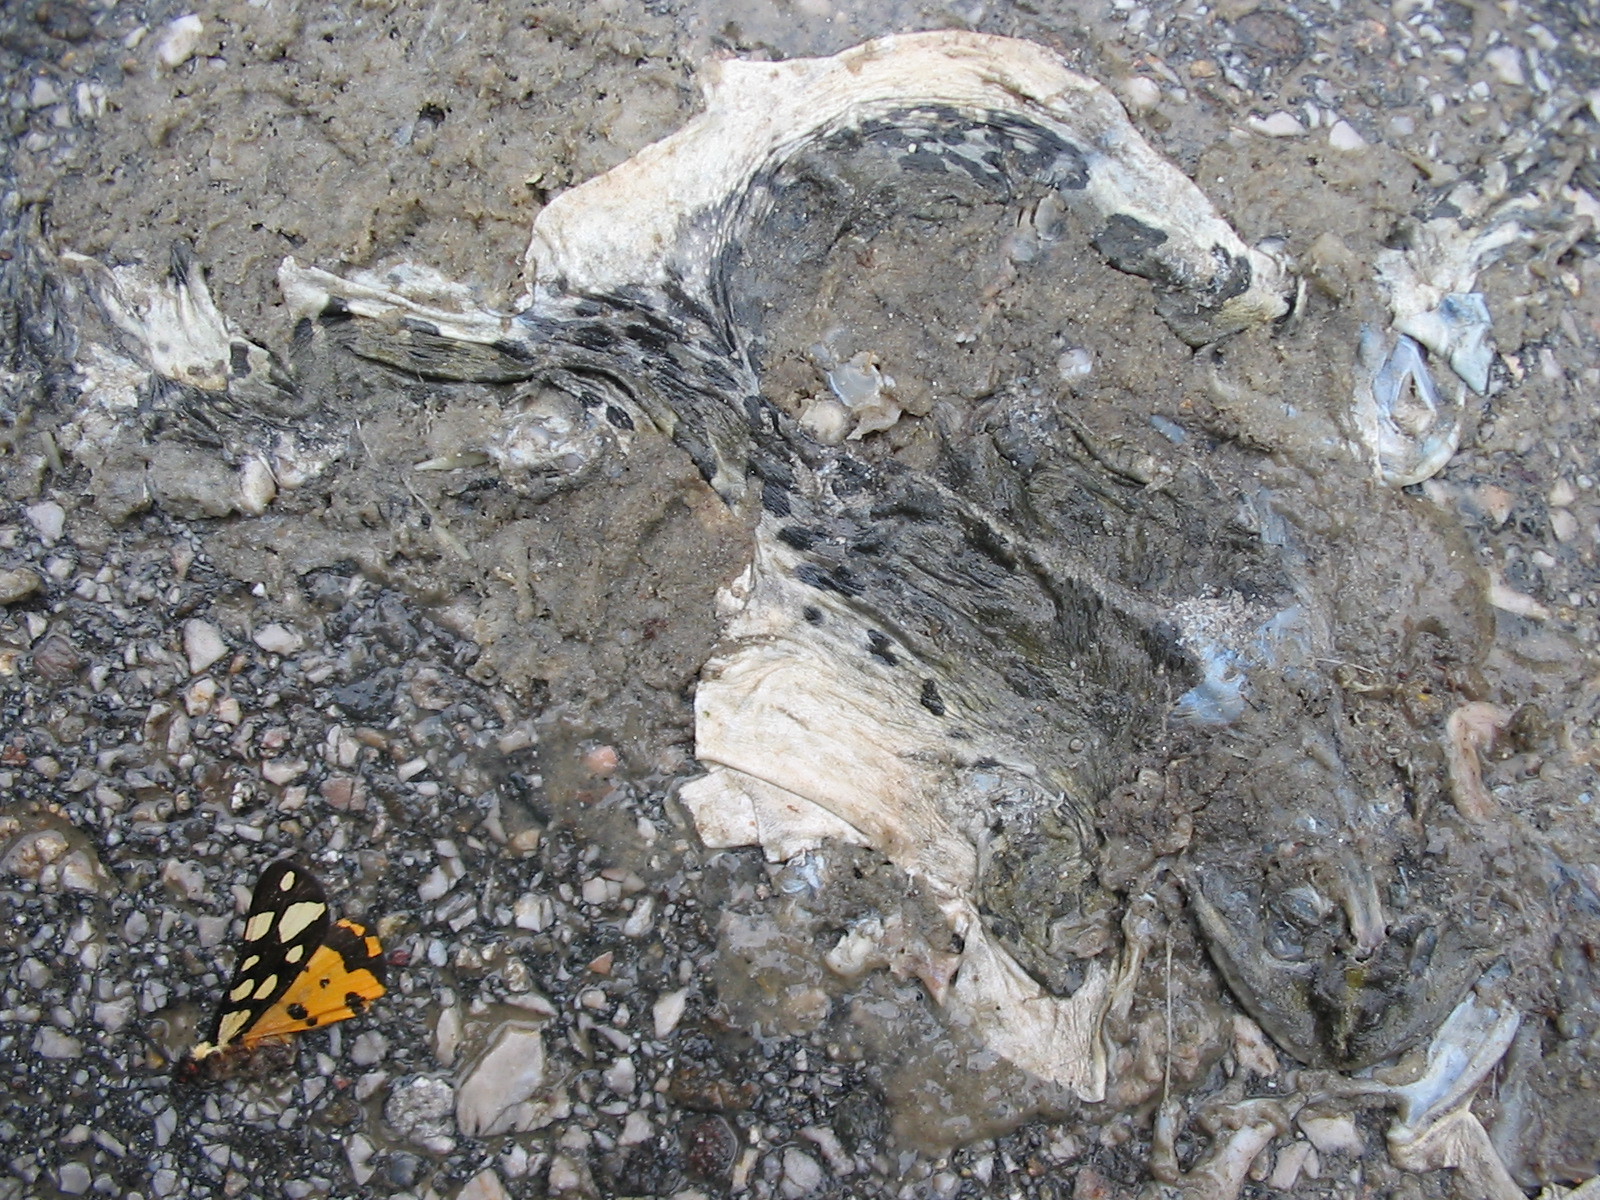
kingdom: Animalia
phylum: Arthropoda
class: Insecta
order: Lepidoptera
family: Erebidae
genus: Epicallia
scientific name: Epicallia villica
